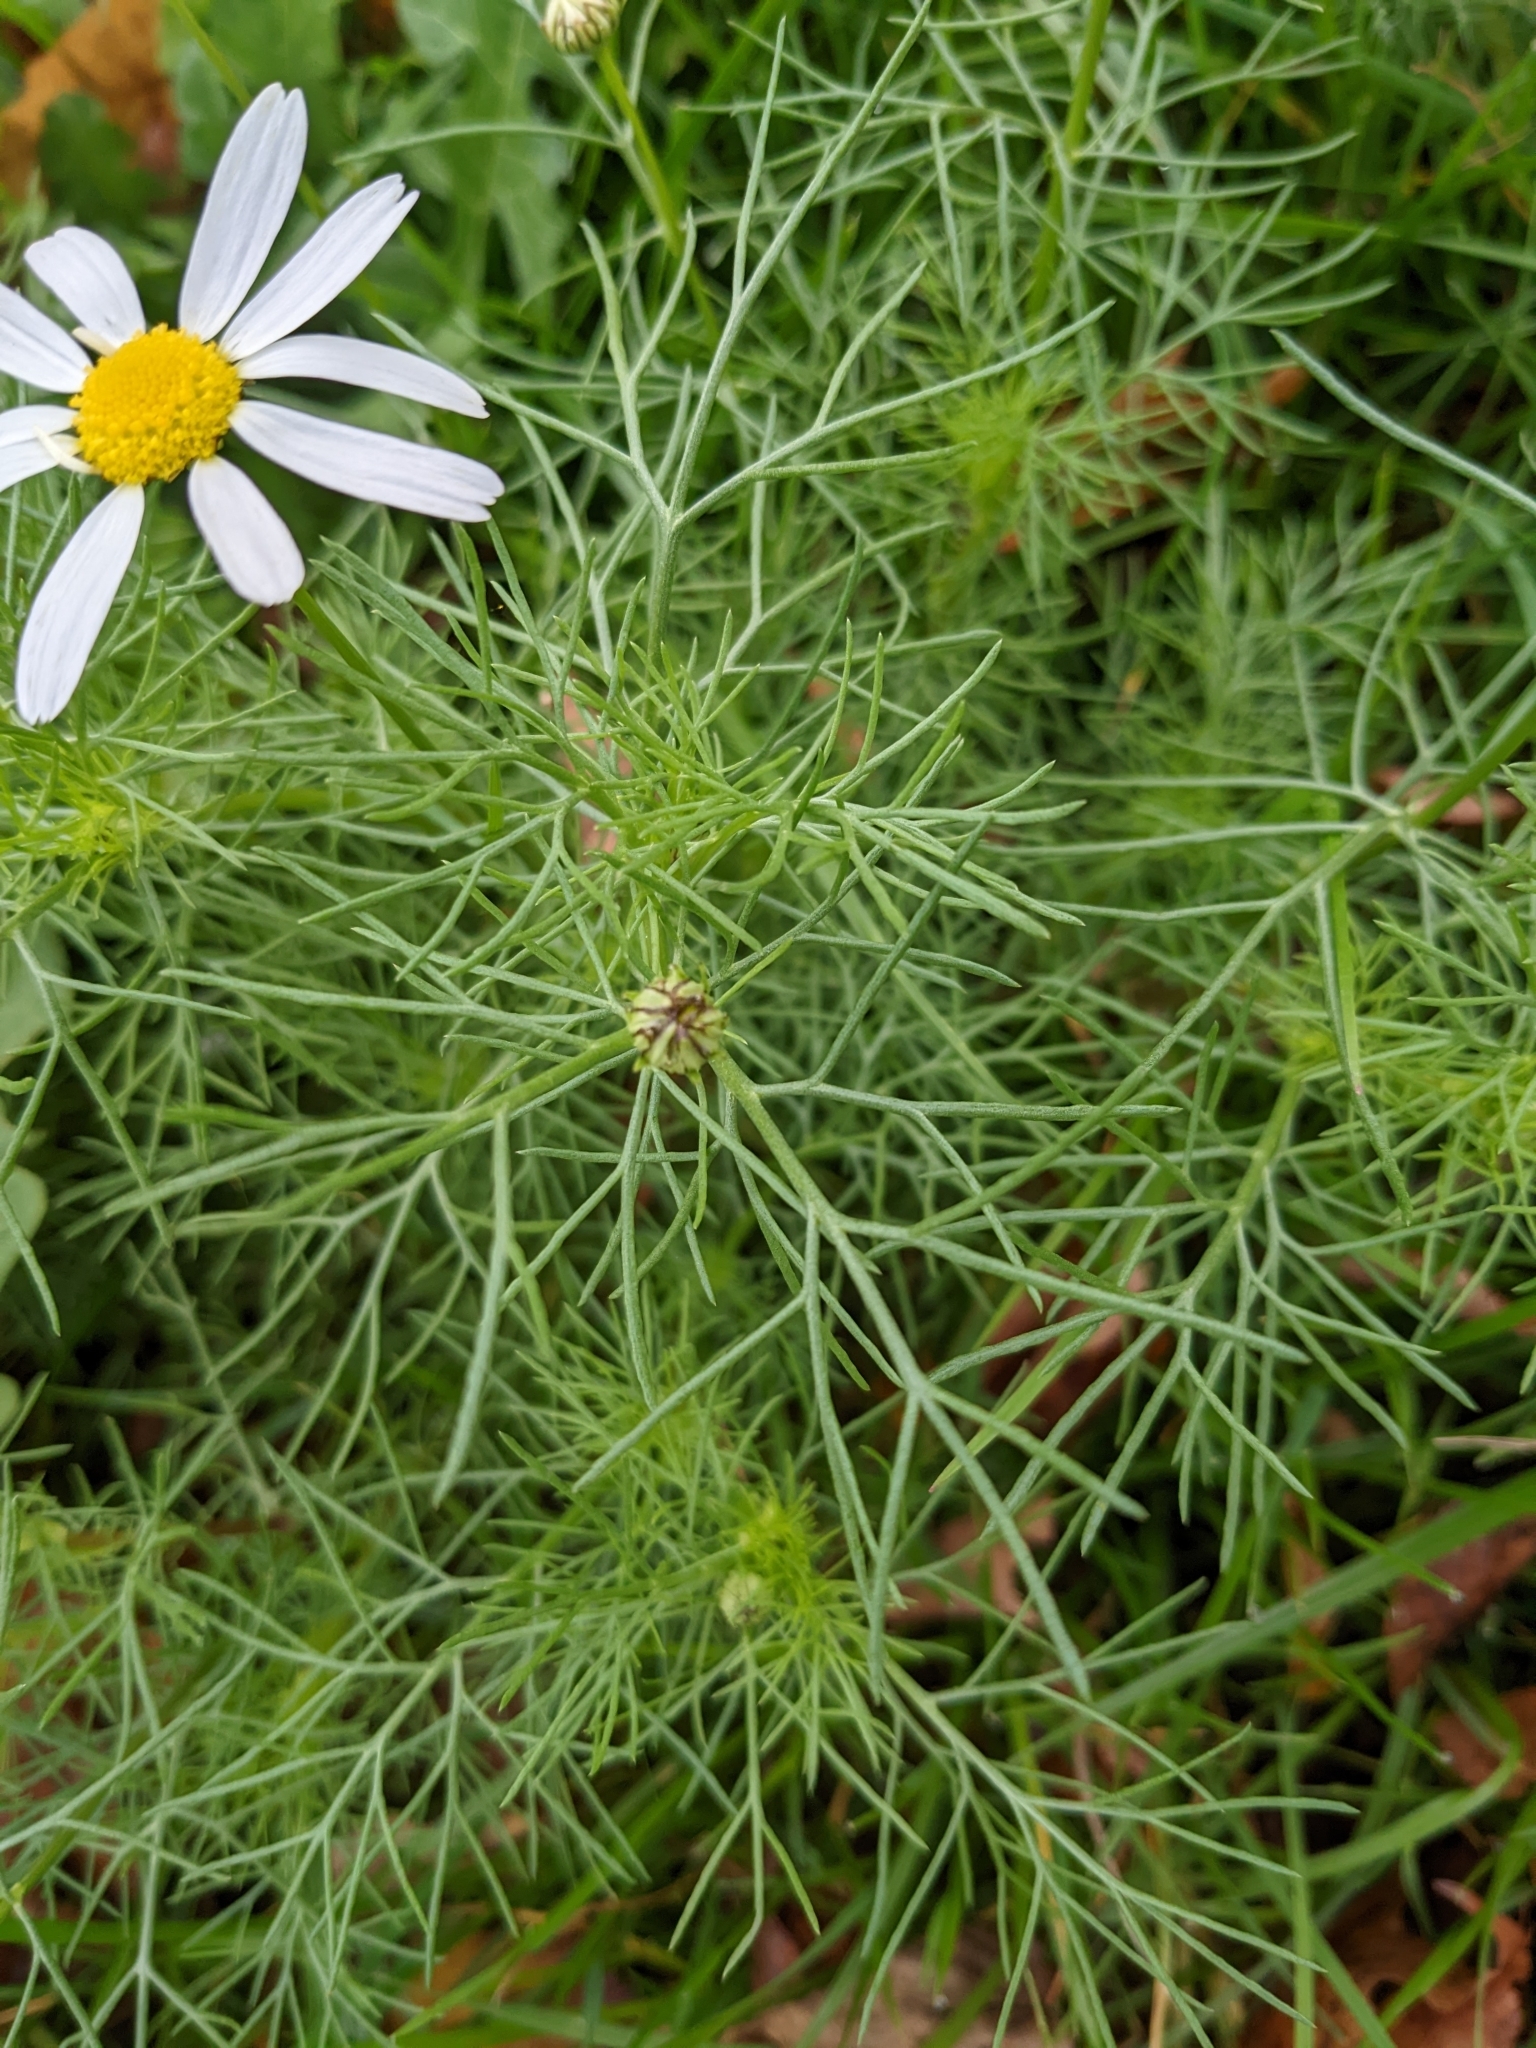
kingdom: Plantae
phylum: Tracheophyta
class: Magnoliopsida
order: Asterales
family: Asteraceae
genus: Tripleurospermum
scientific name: Tripleurospermum inodorum
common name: Scentless mayweed
